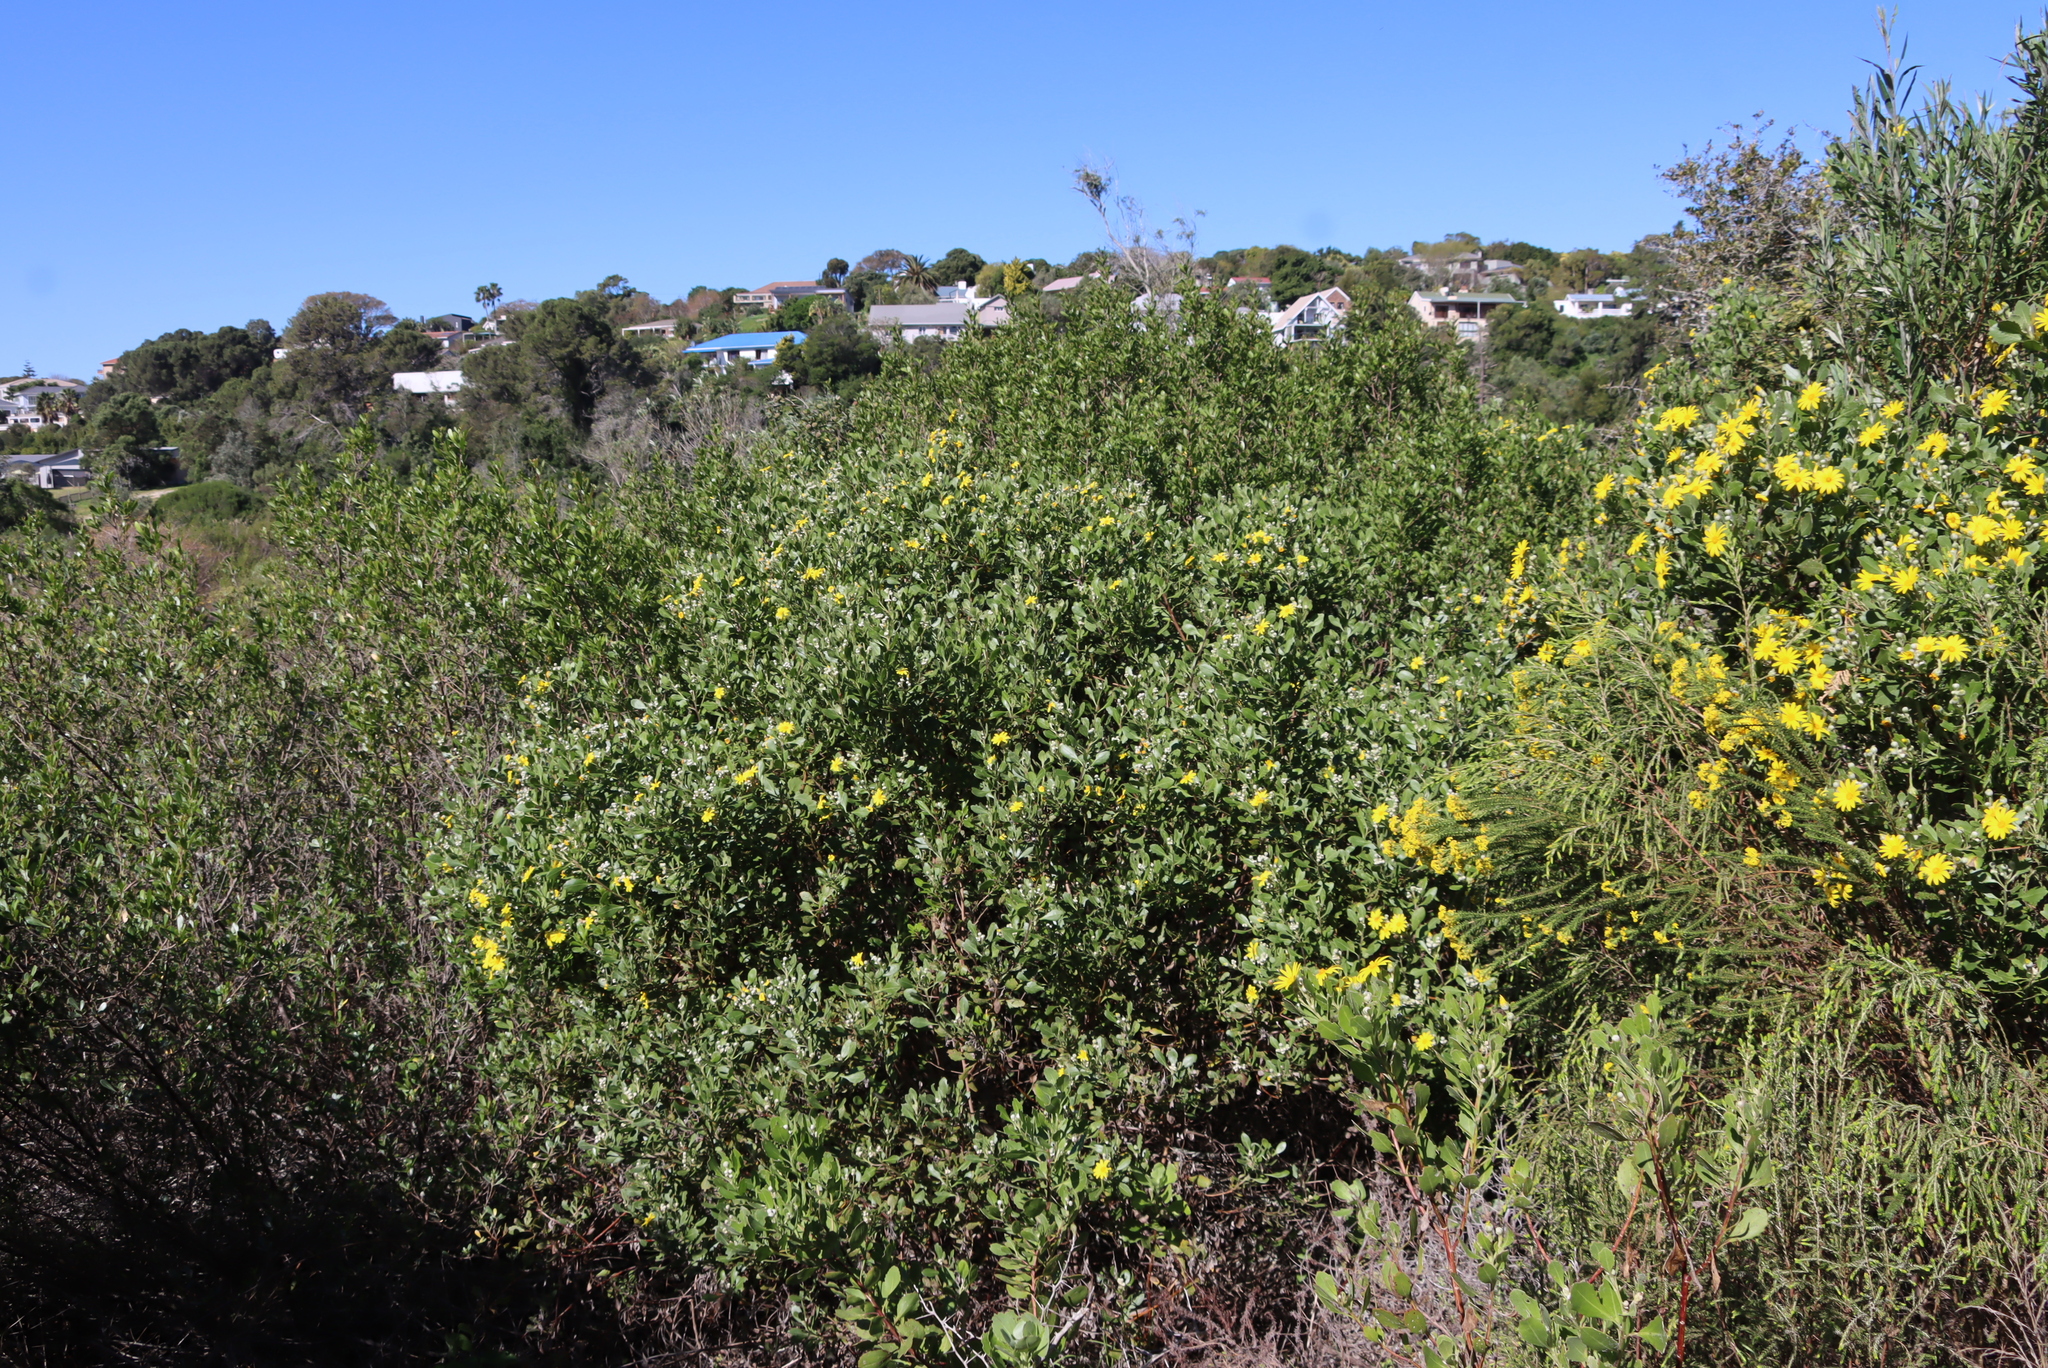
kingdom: Plantae
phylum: Tracheophyta
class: Magnoliopsida
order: Asterales
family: Asteraceae
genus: Osteospermum
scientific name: Osteospermum moniliferum
